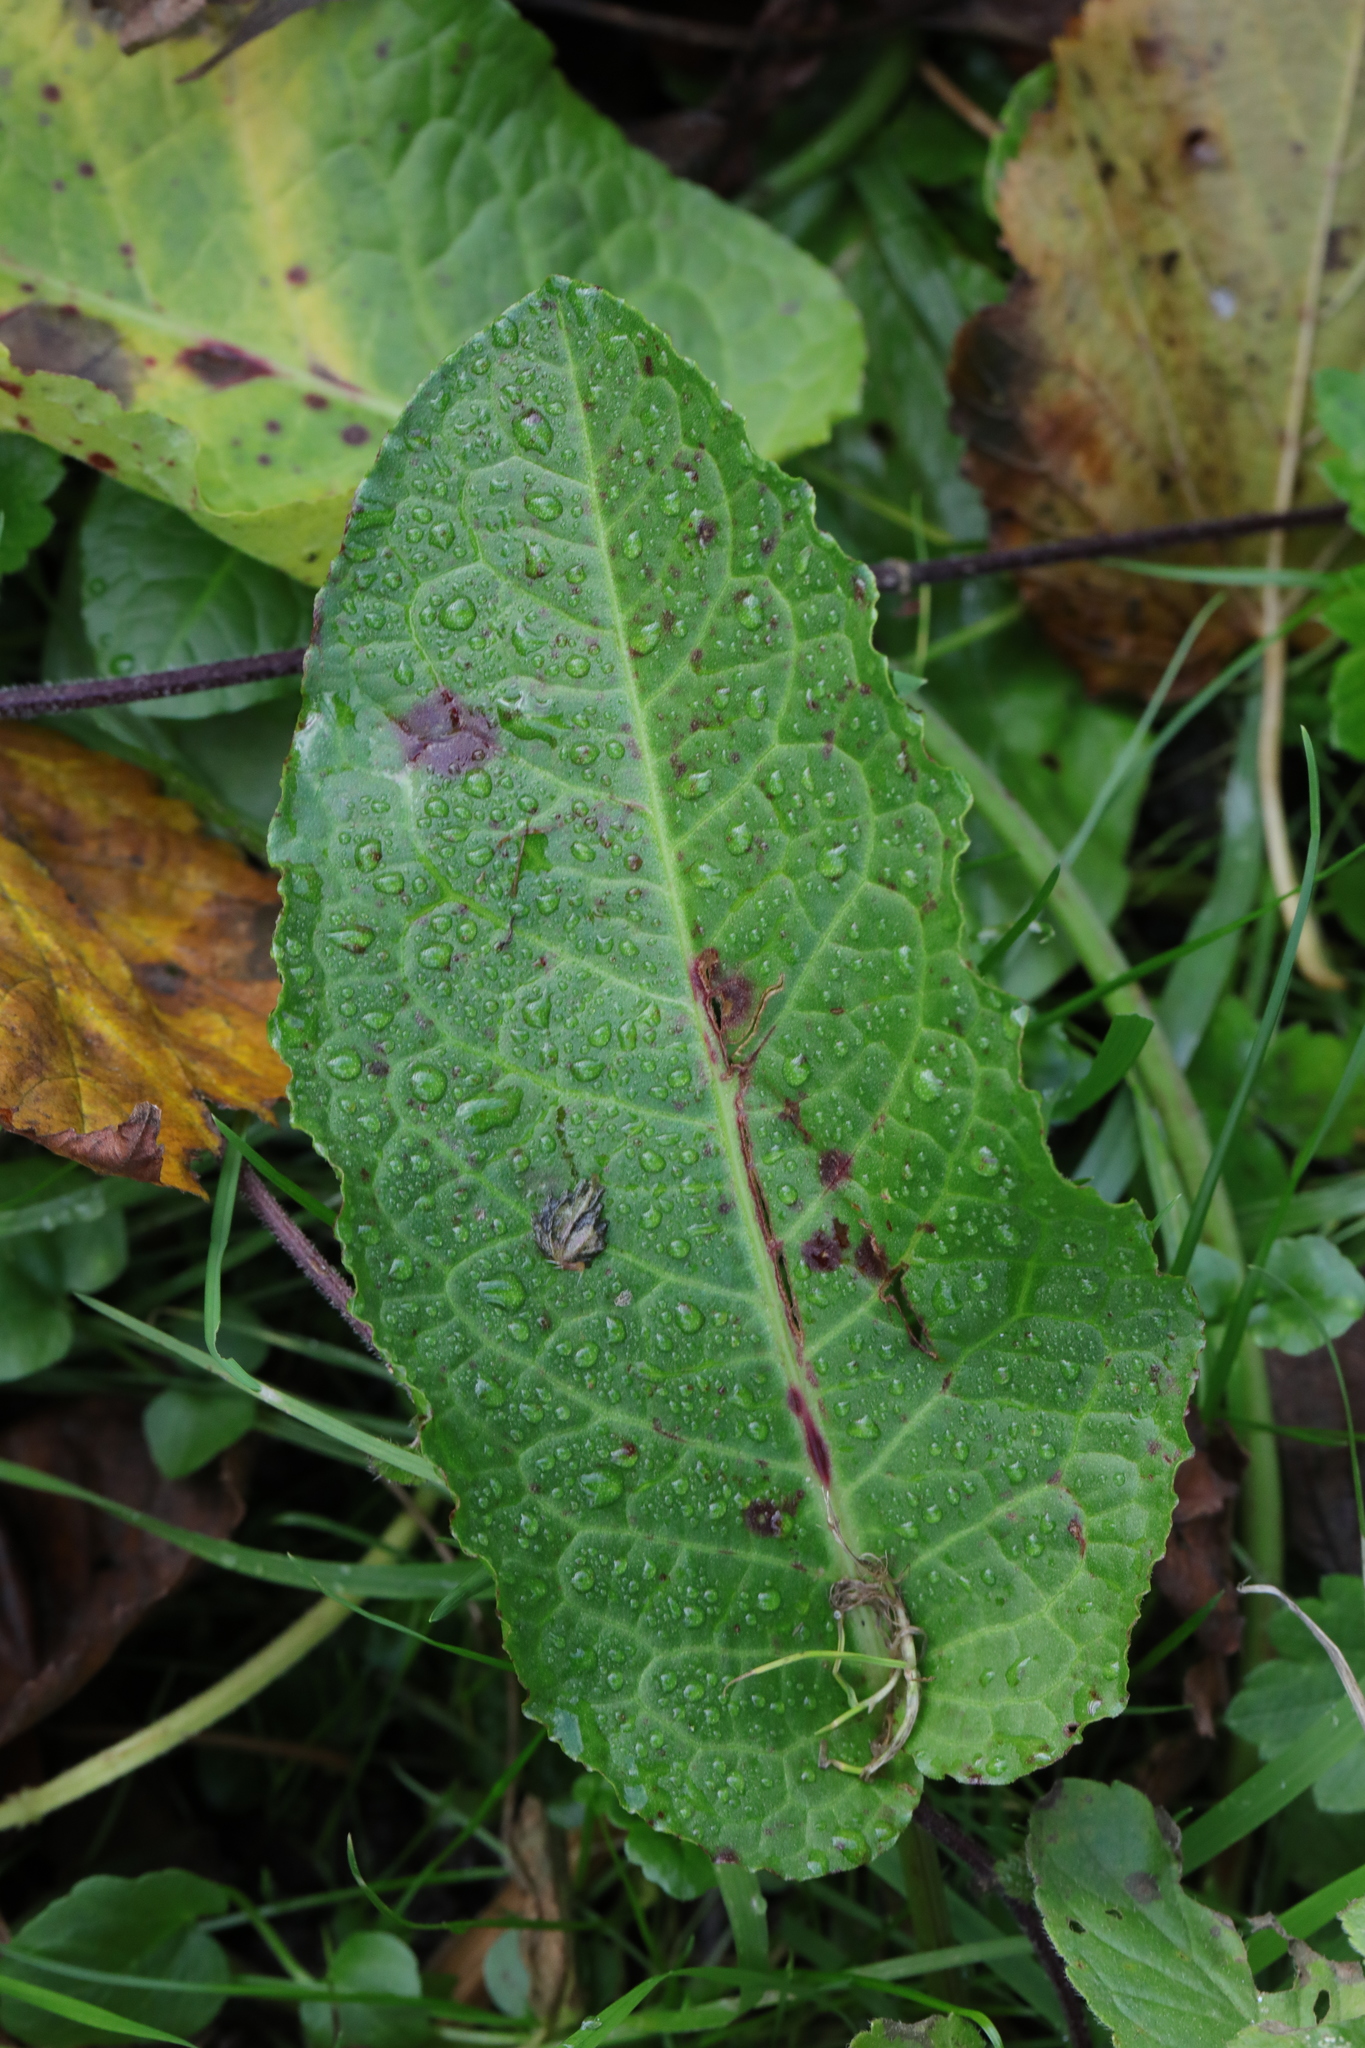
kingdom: Plantae
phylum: Tracheophyta
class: Magnoliopsida
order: Caryophyllales
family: Polygonaceae
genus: Rumex
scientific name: Rumex obtusifolius
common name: Bitter dock
